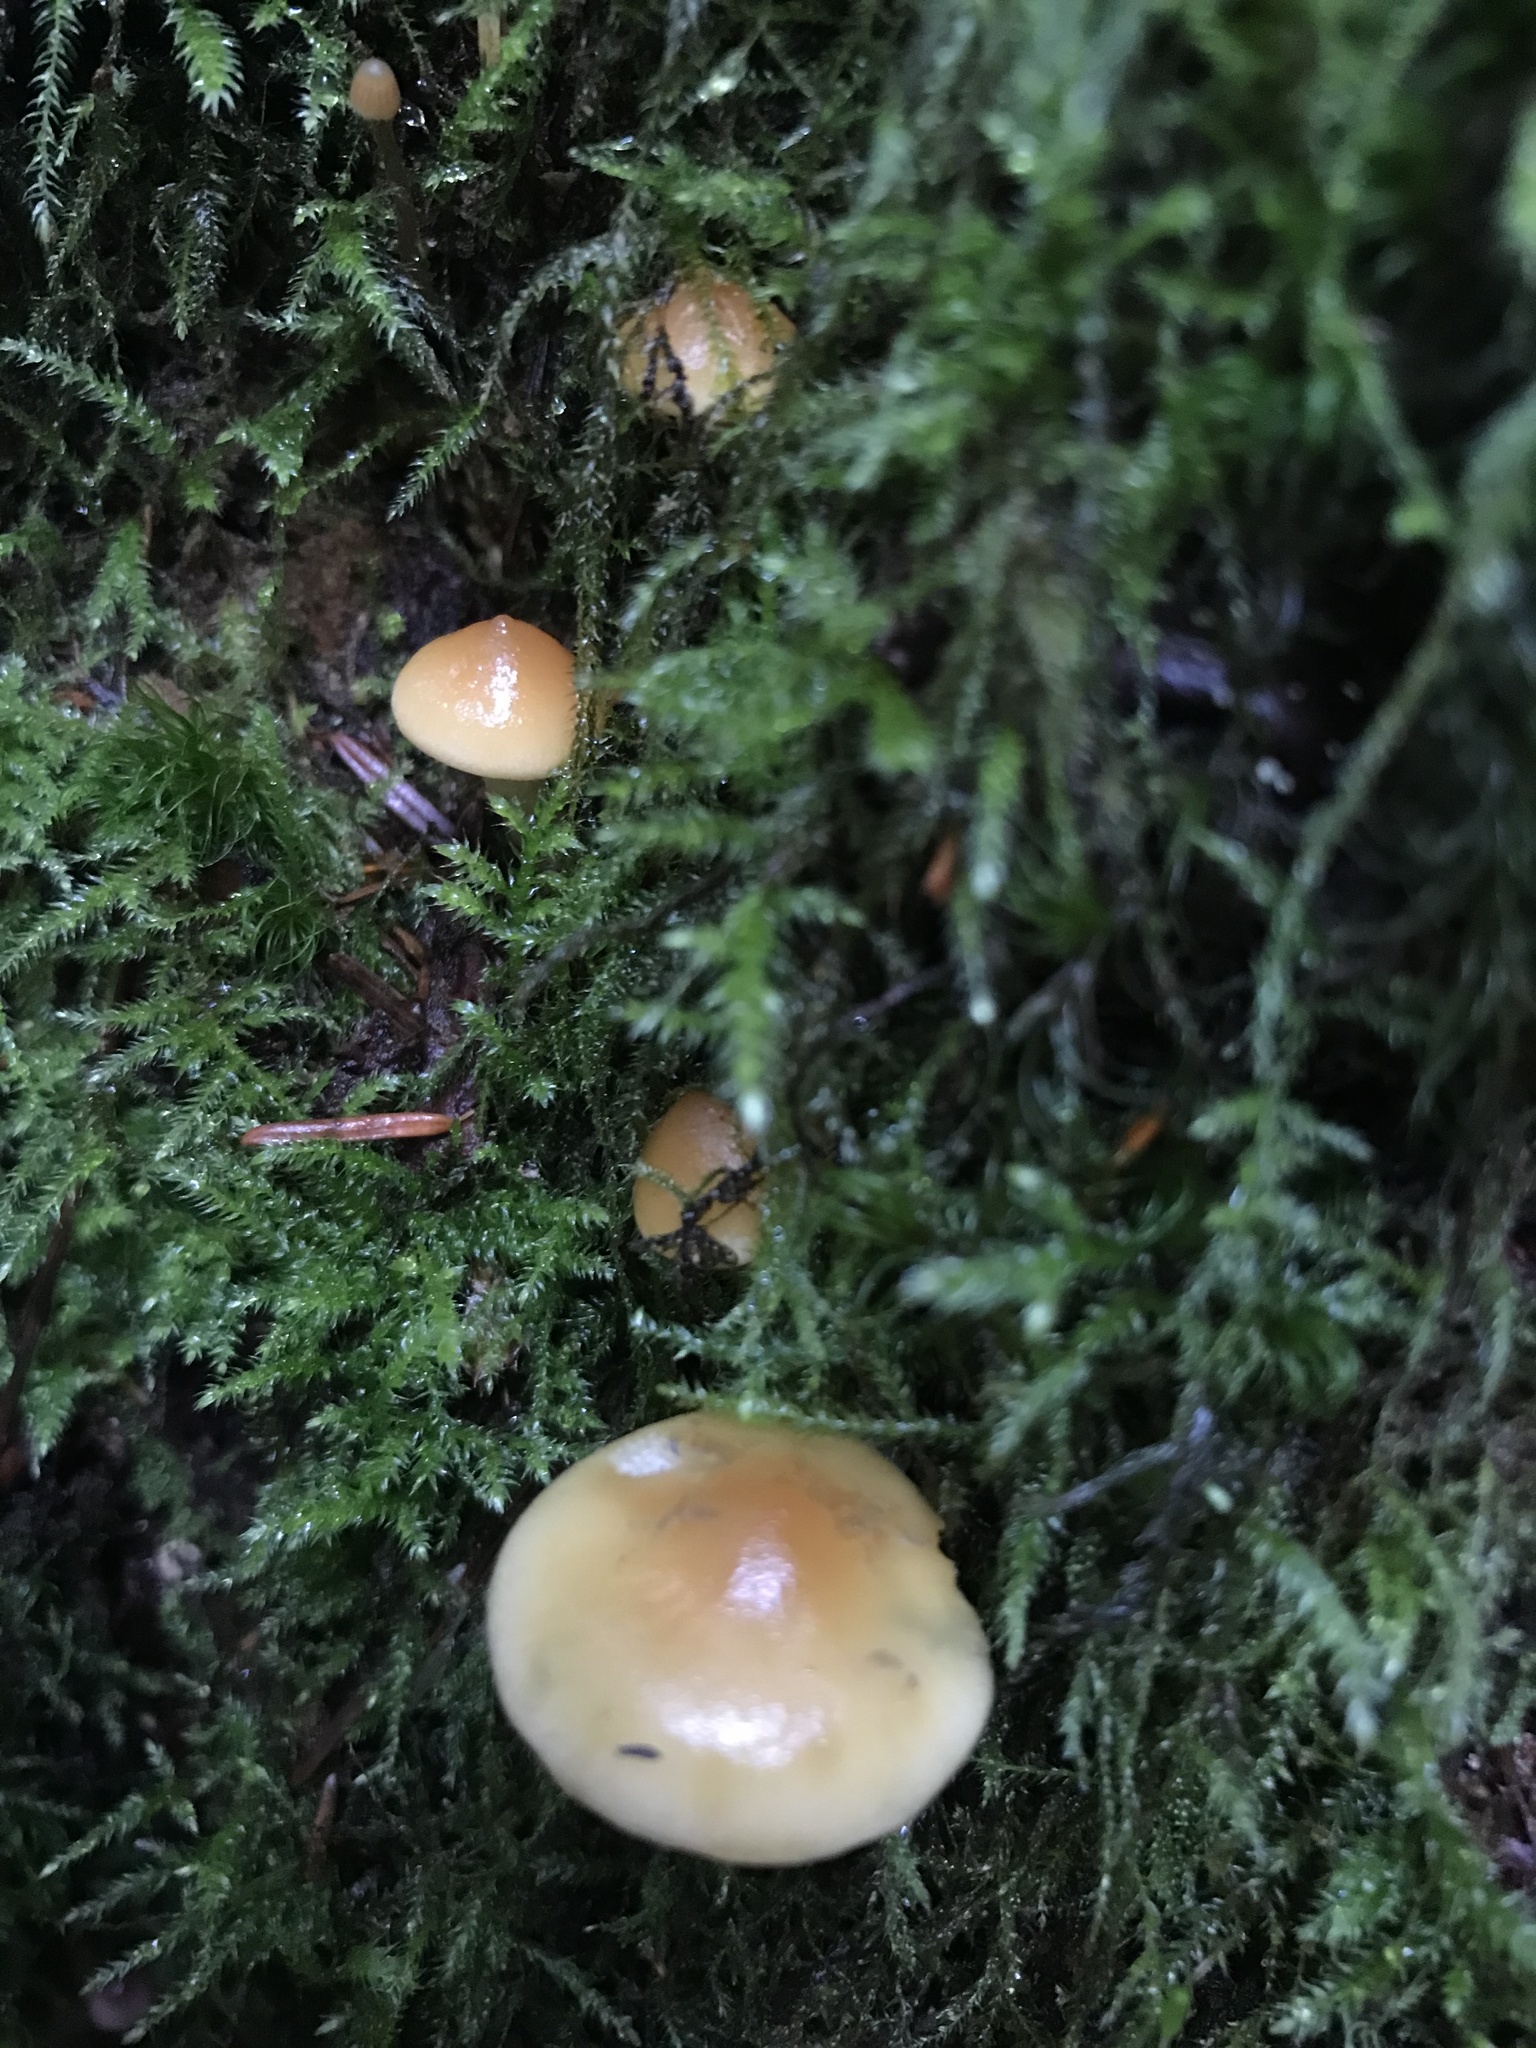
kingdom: Fungi
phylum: Basidiomycota
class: Agaricomycetes
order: Agaricales
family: Strophariaceae
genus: Hypholoma
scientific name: Hypholoma capnoides
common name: Conifer tuft
